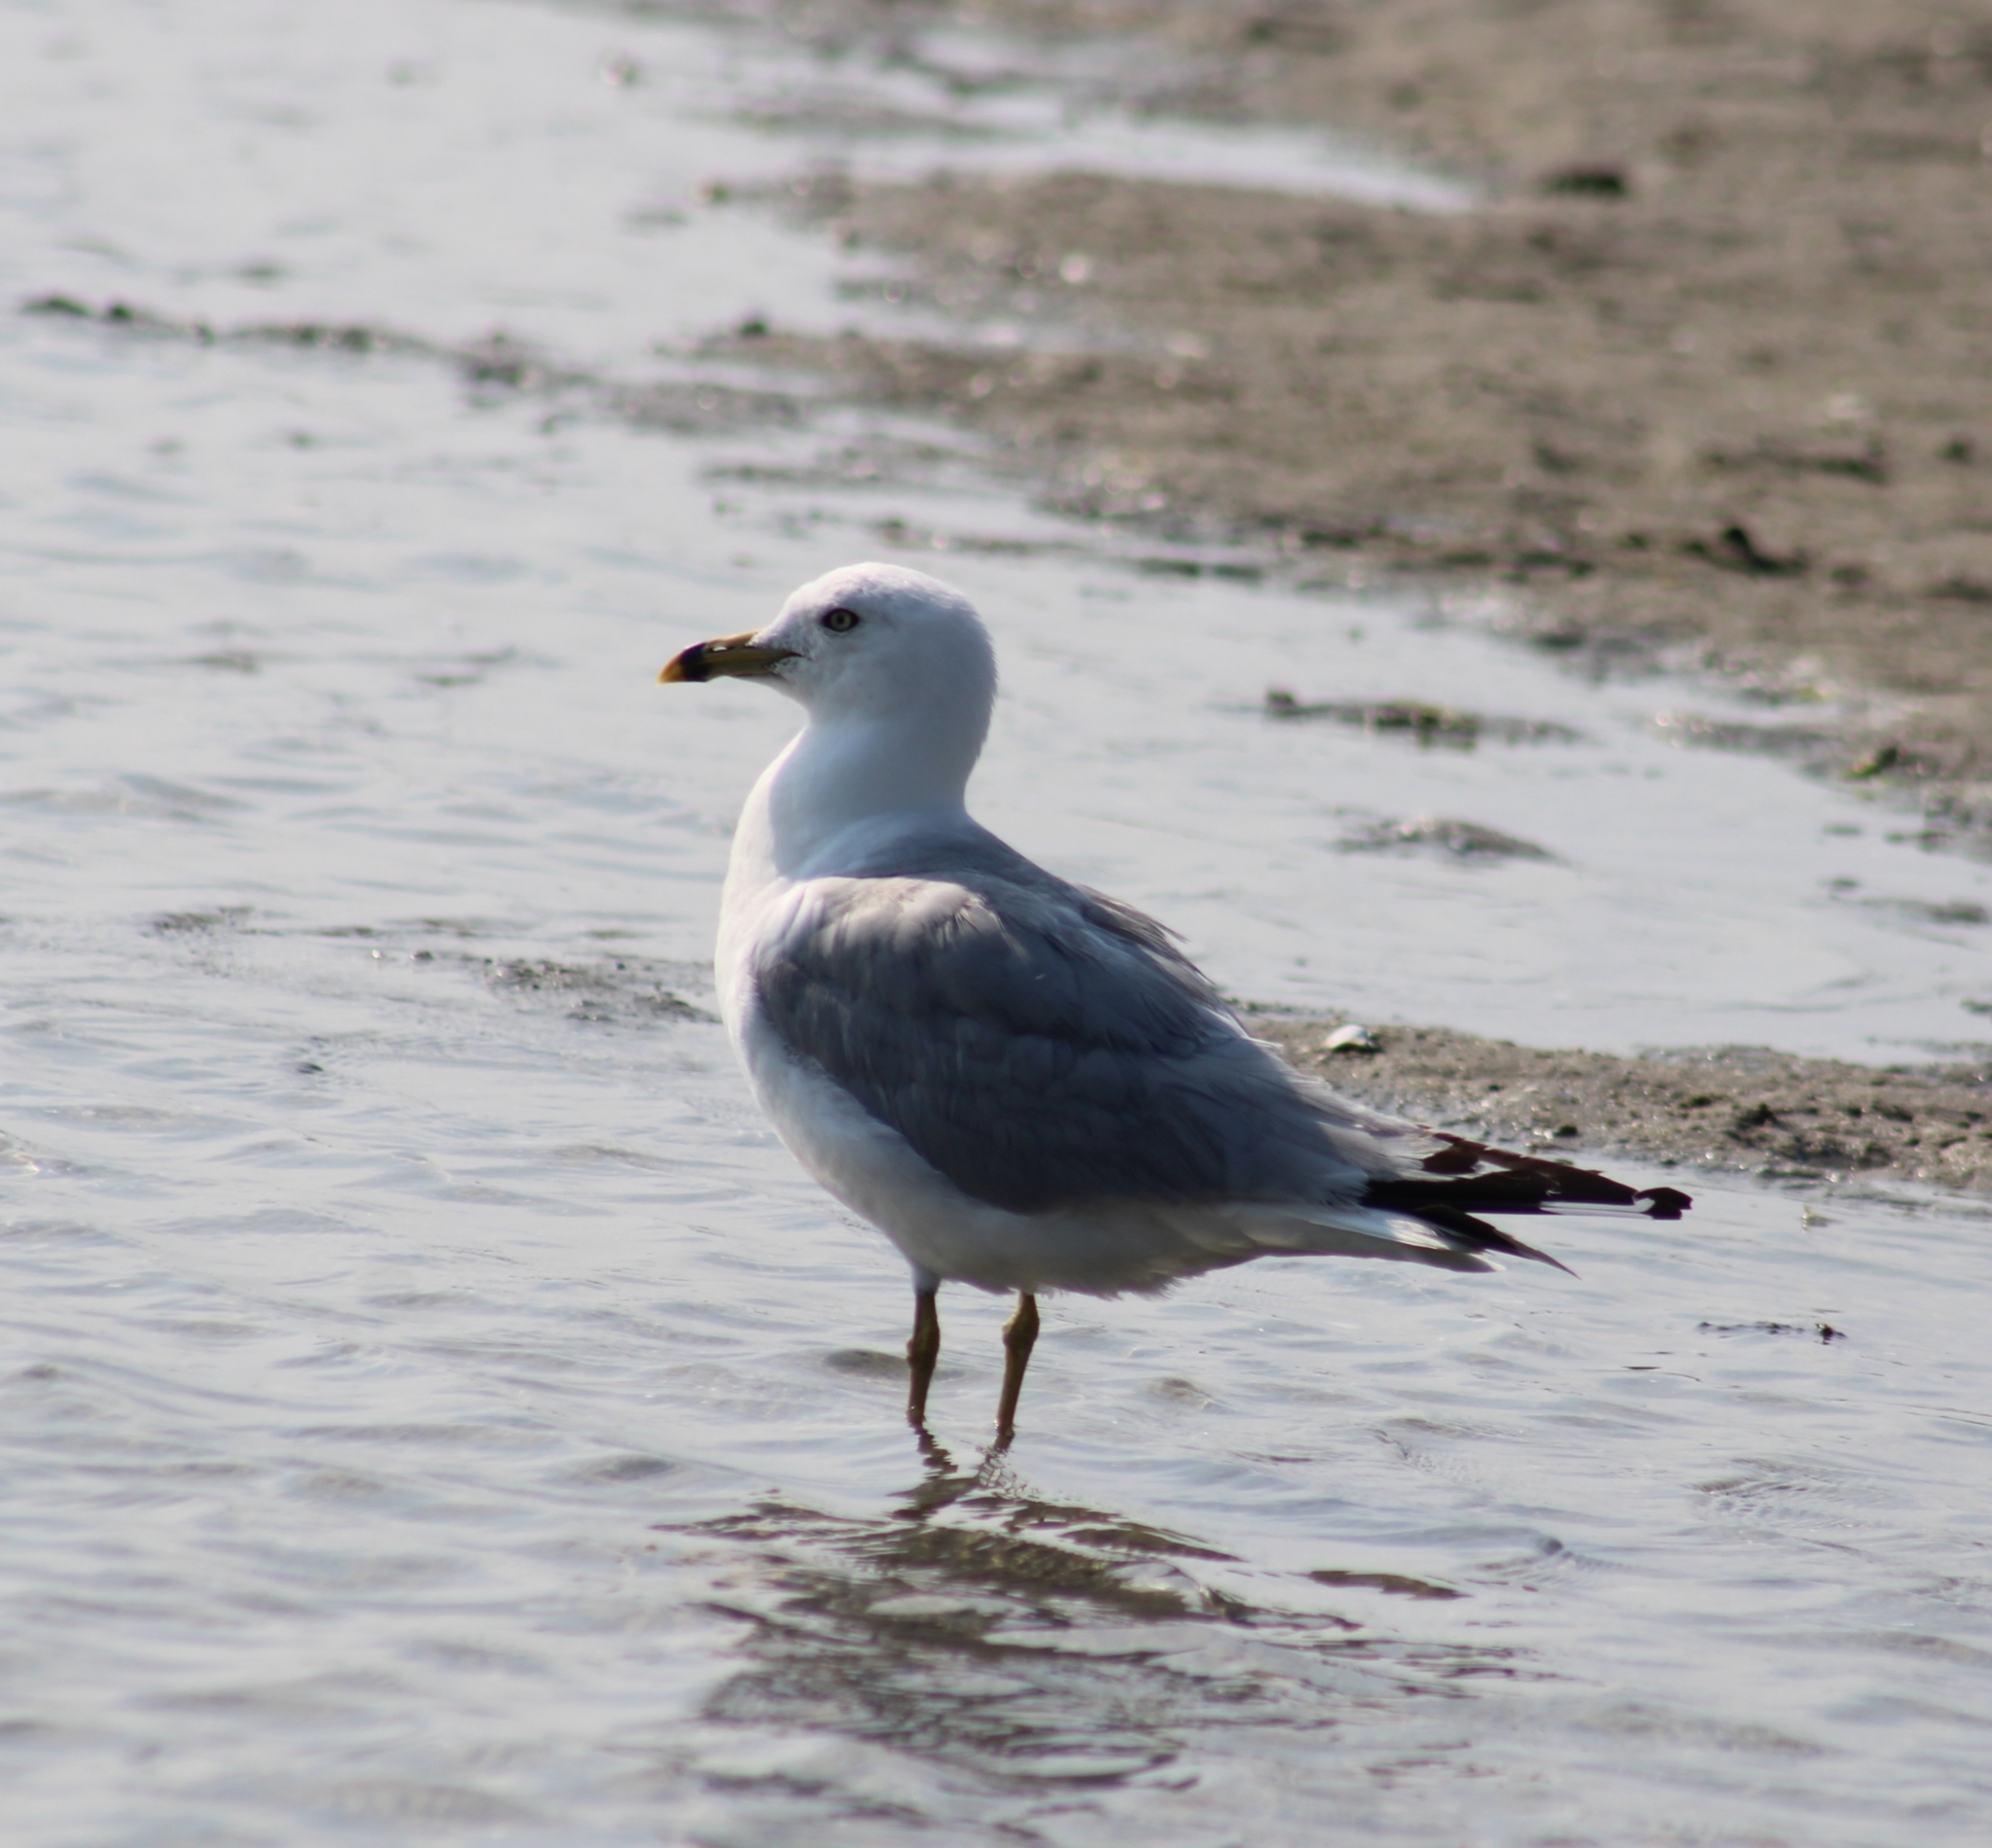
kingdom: Animalia
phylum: Chordata
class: Aves
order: Charadriiformes
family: Laridae
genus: Larus
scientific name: Larus delawarensis
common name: Ring-billed gull
